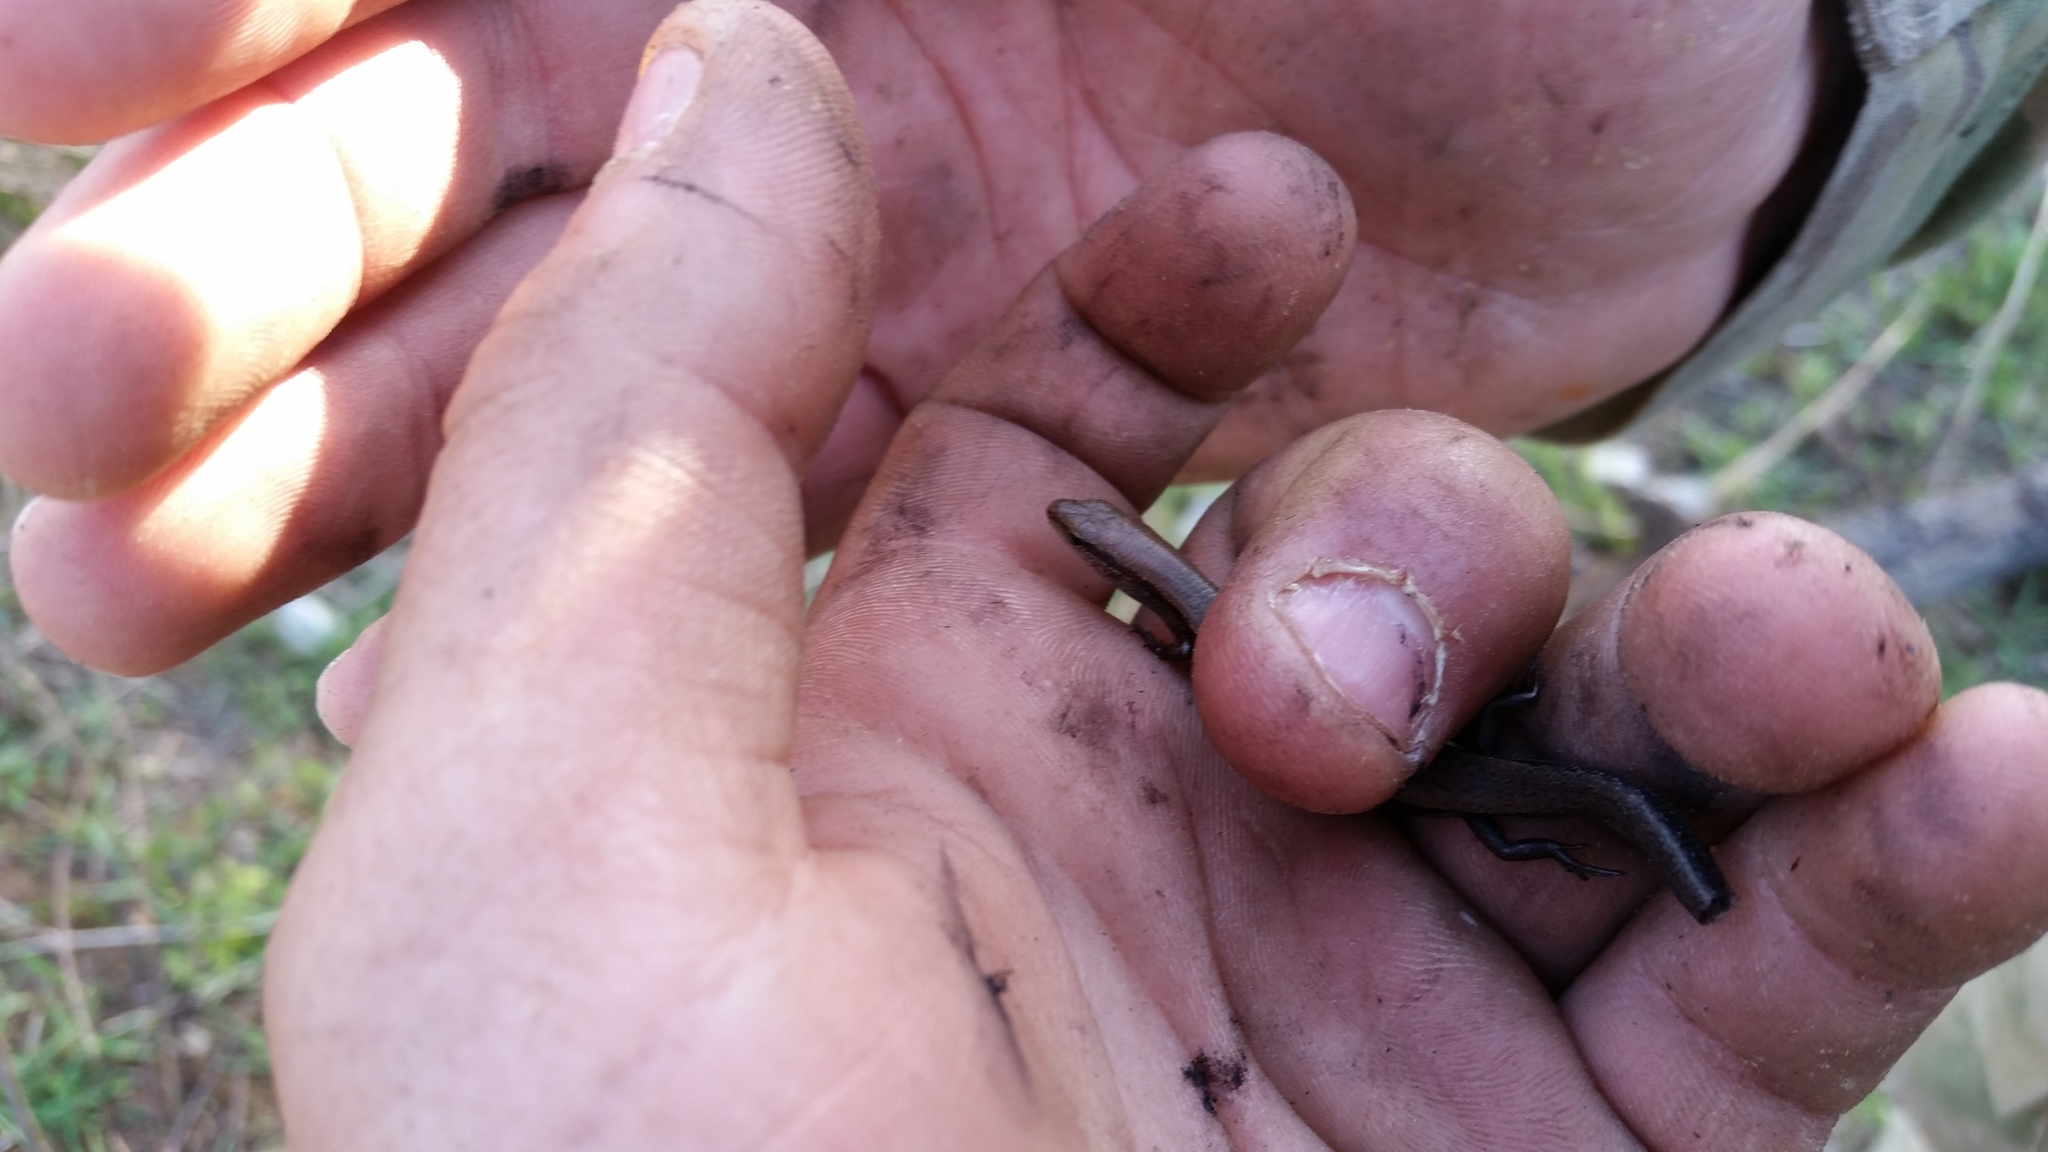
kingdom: Animalia
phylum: Chordata
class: Squamata
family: Scincidae
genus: Scincella
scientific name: Scincella lateralis
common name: Ground skink
